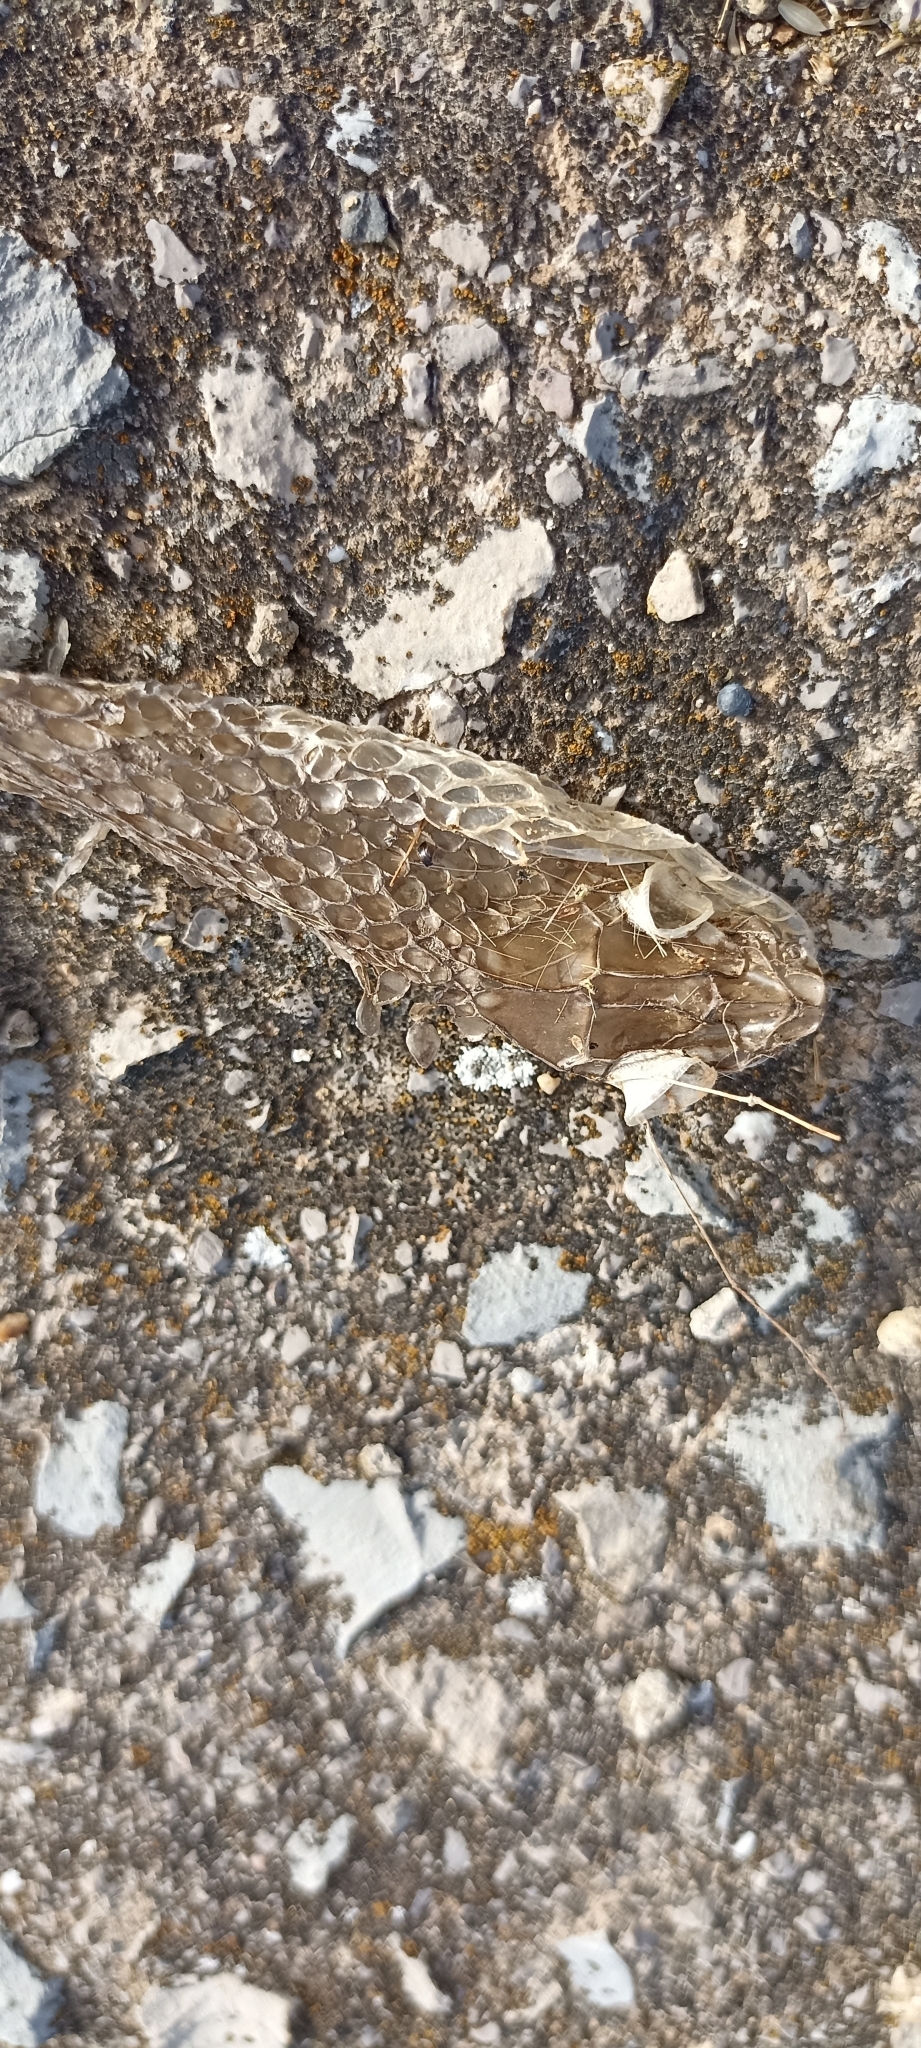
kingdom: Animalia
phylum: Chordata
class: Squamata
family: Psammophiidae
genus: Malpolon
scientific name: Malpolon monspessulanus
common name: Montpellier snake
